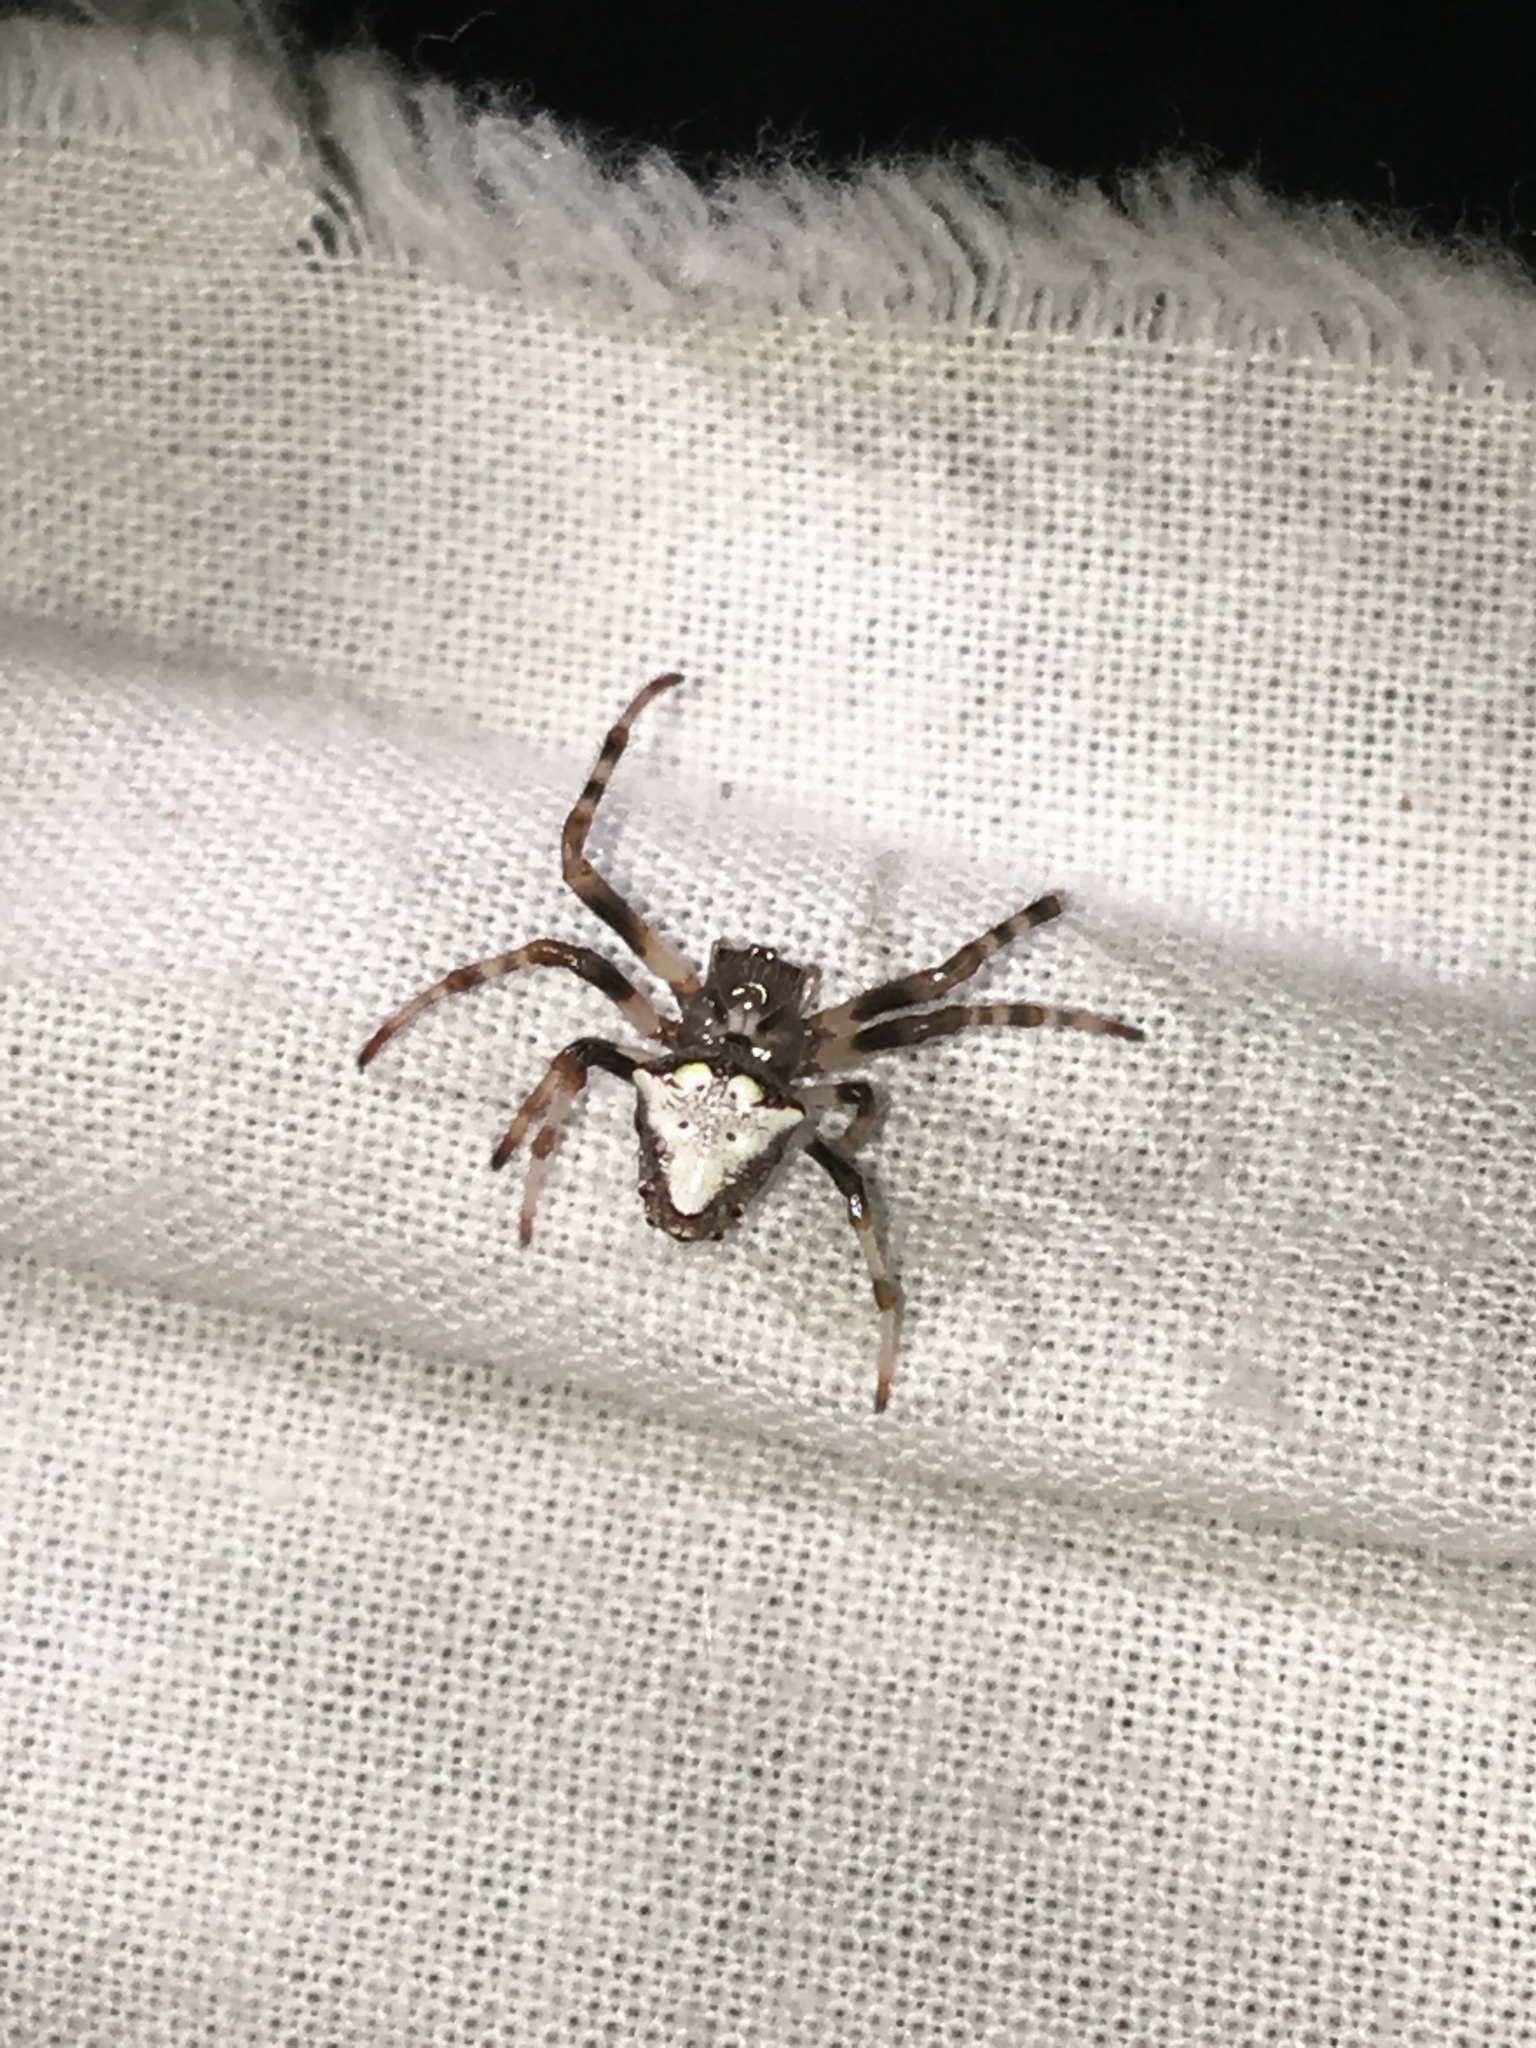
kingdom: Animalia
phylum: Arthropoda
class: Arachnida
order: Araneae
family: Araneidae
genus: Verrucosa
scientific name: Verrucosa arenata
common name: Orb weavers
